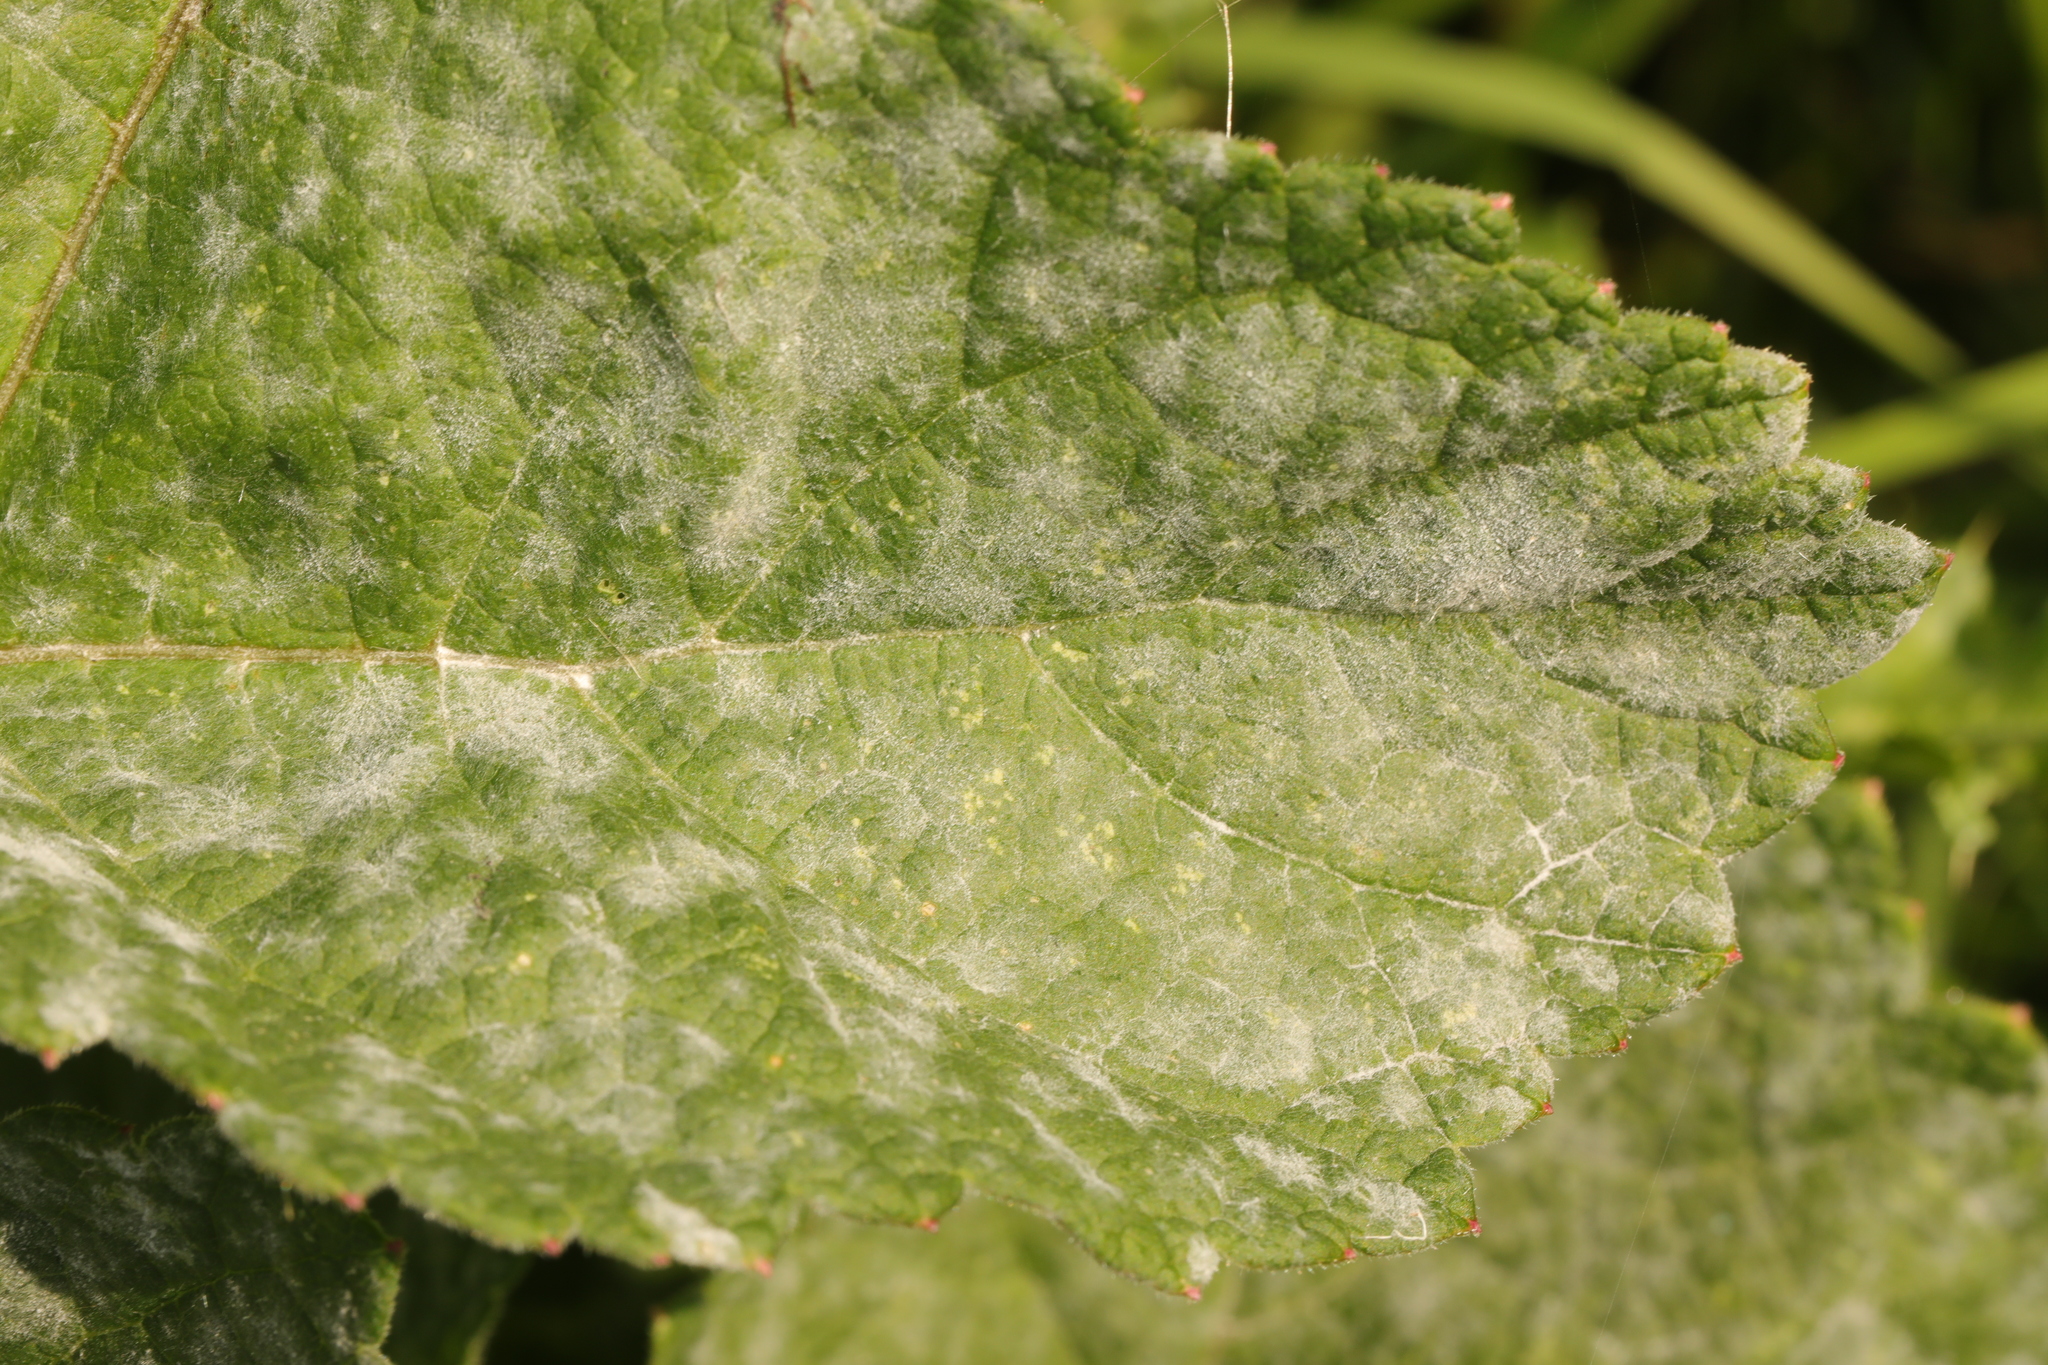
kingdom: Fungi
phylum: Ascomycota
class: Leotiomycetes
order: Helotiales
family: Erysiphaceae
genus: Erysiphe
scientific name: Erysiphe heraclei
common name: Umbellifer mildew
